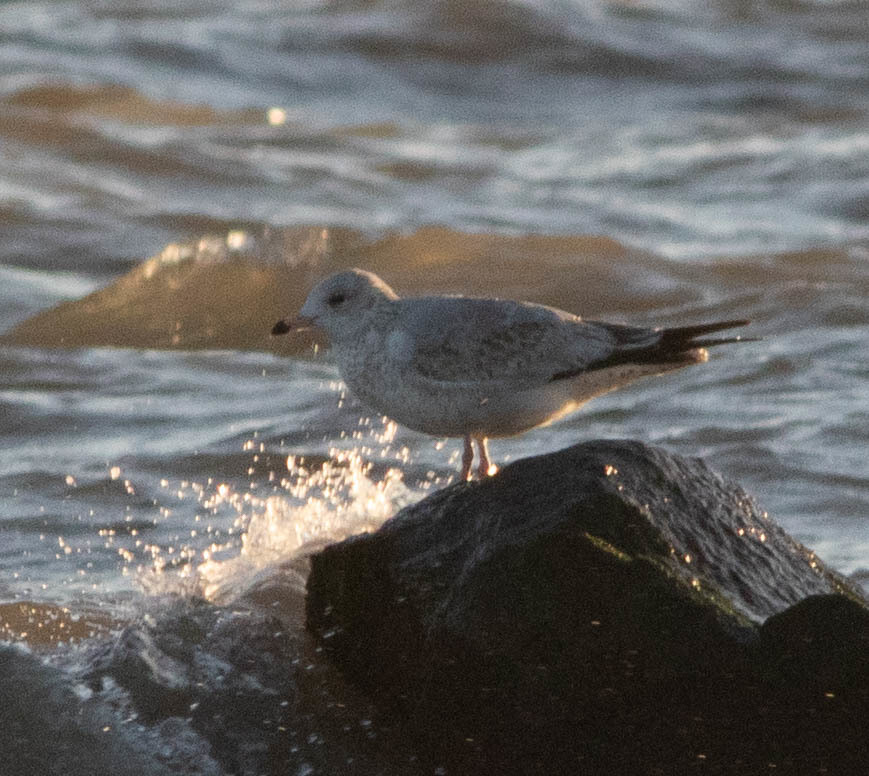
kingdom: Animalia
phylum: Chordata
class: Aves
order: Charadriiformes
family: Laridae
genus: Larus
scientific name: Larus delawarensis
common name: Ring-billed gull
